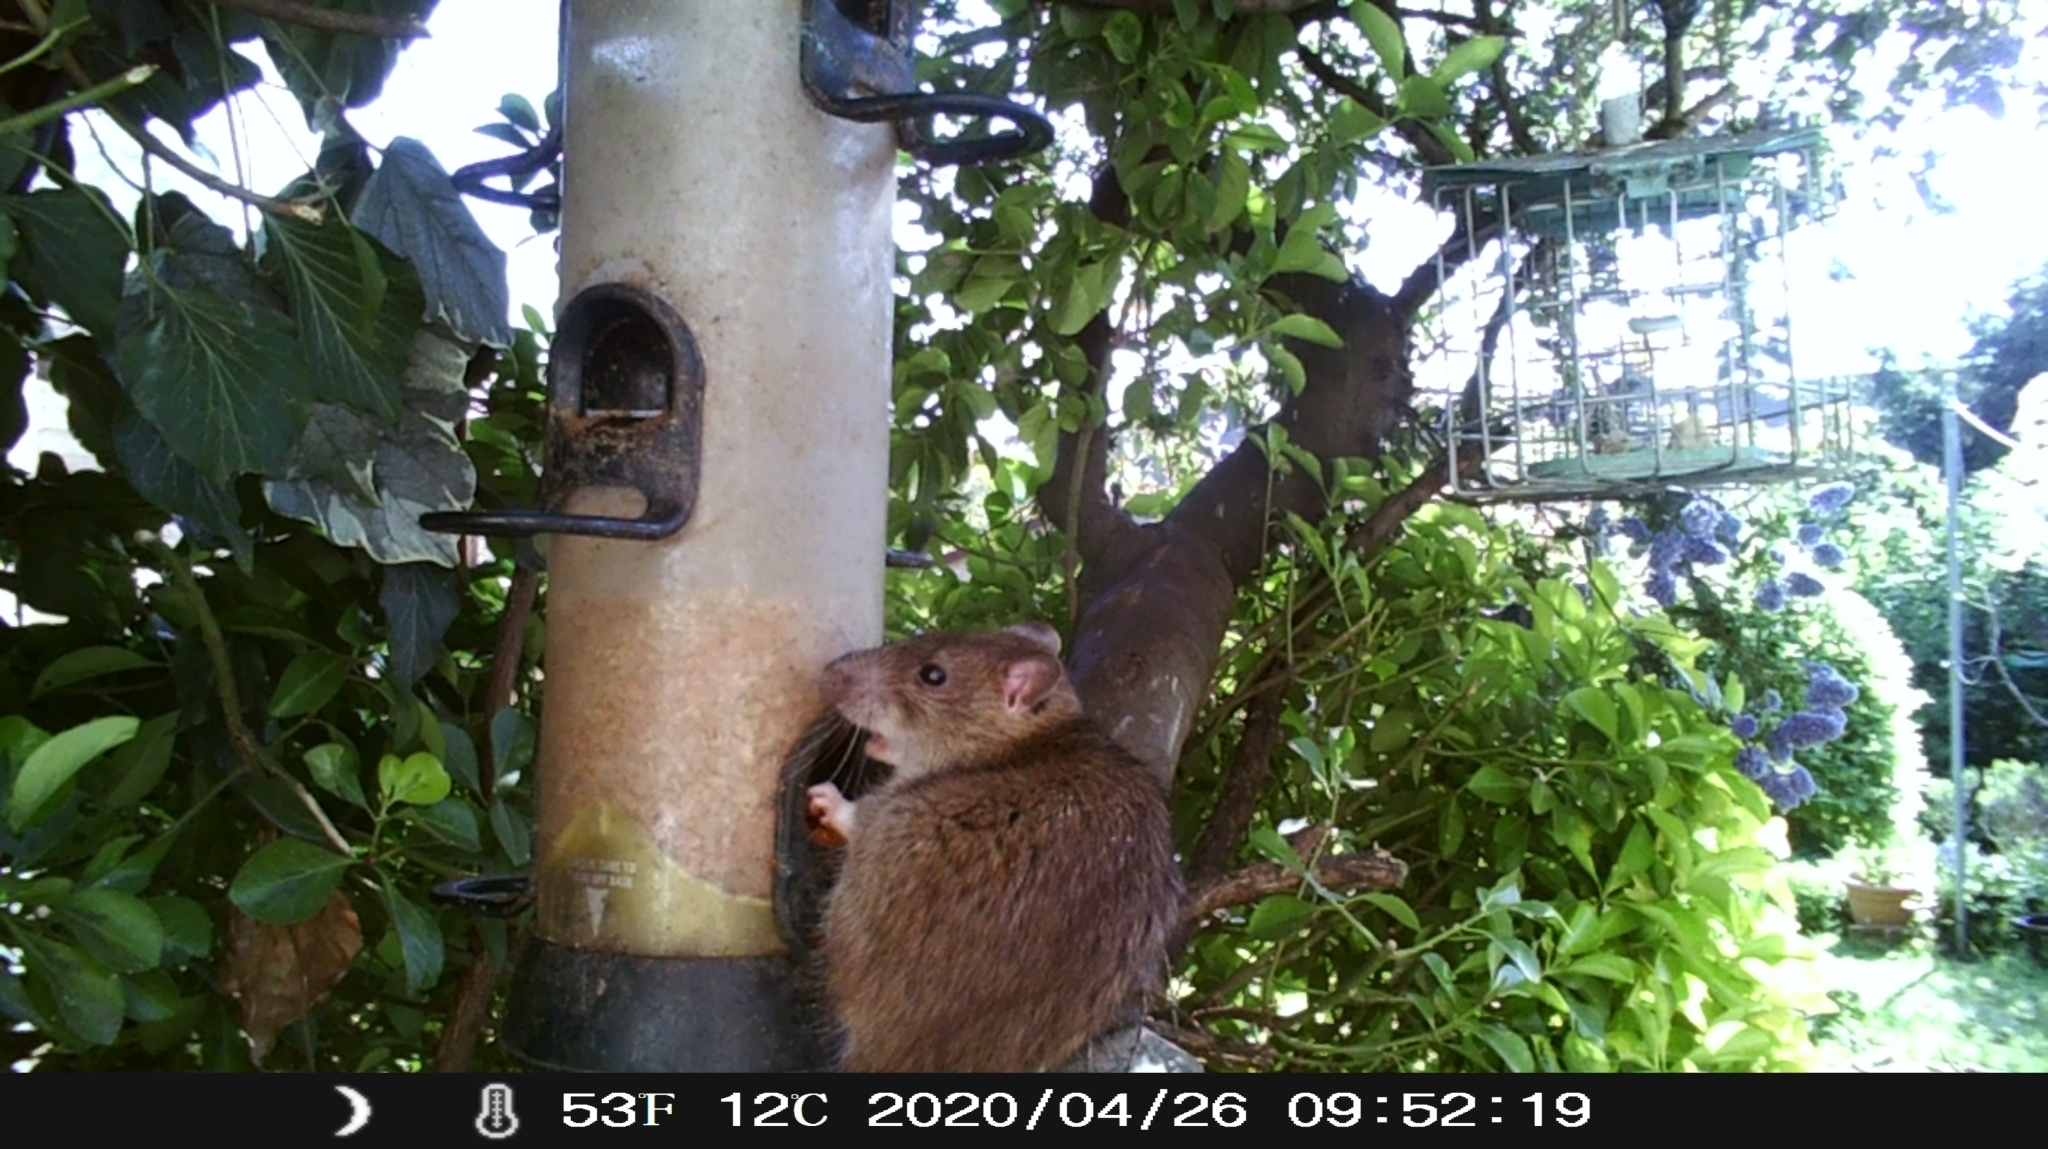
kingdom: Animalia
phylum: Chordata
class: Mammalia
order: Rodentia
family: Muridae
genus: Rattus
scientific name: Rattus norvegicus
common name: Brown rat
